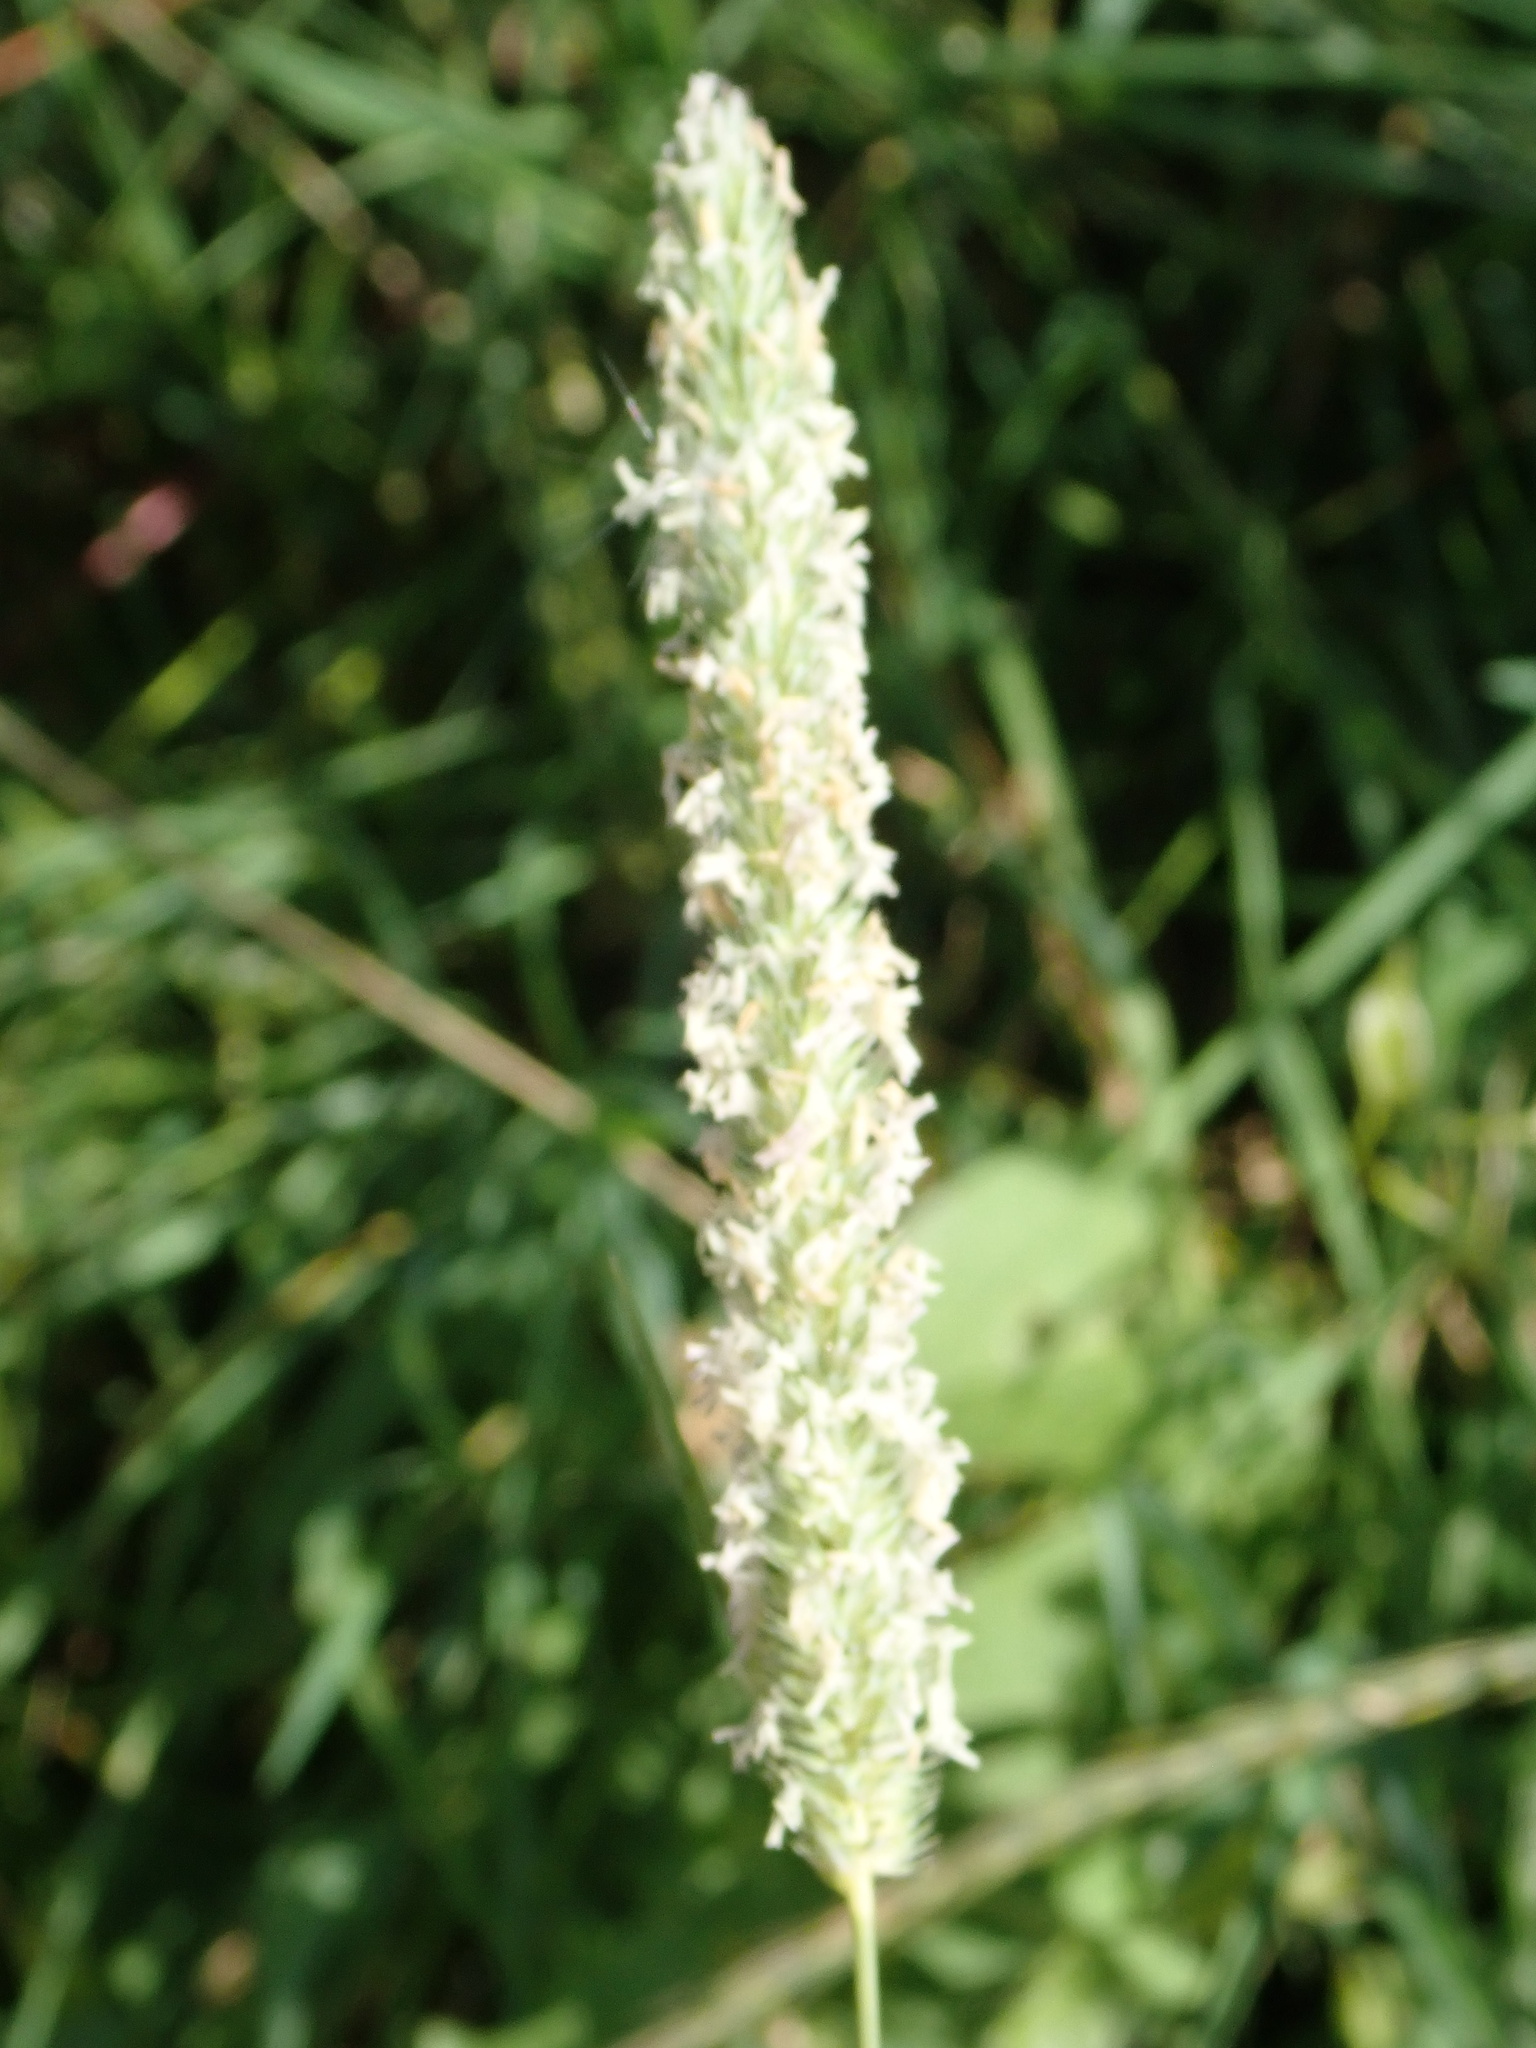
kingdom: Plantae
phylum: Tracheophyta
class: Liliopsida
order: Poales
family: Poaceae
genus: Phleum
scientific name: Phleum pratense
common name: Timothy grass
